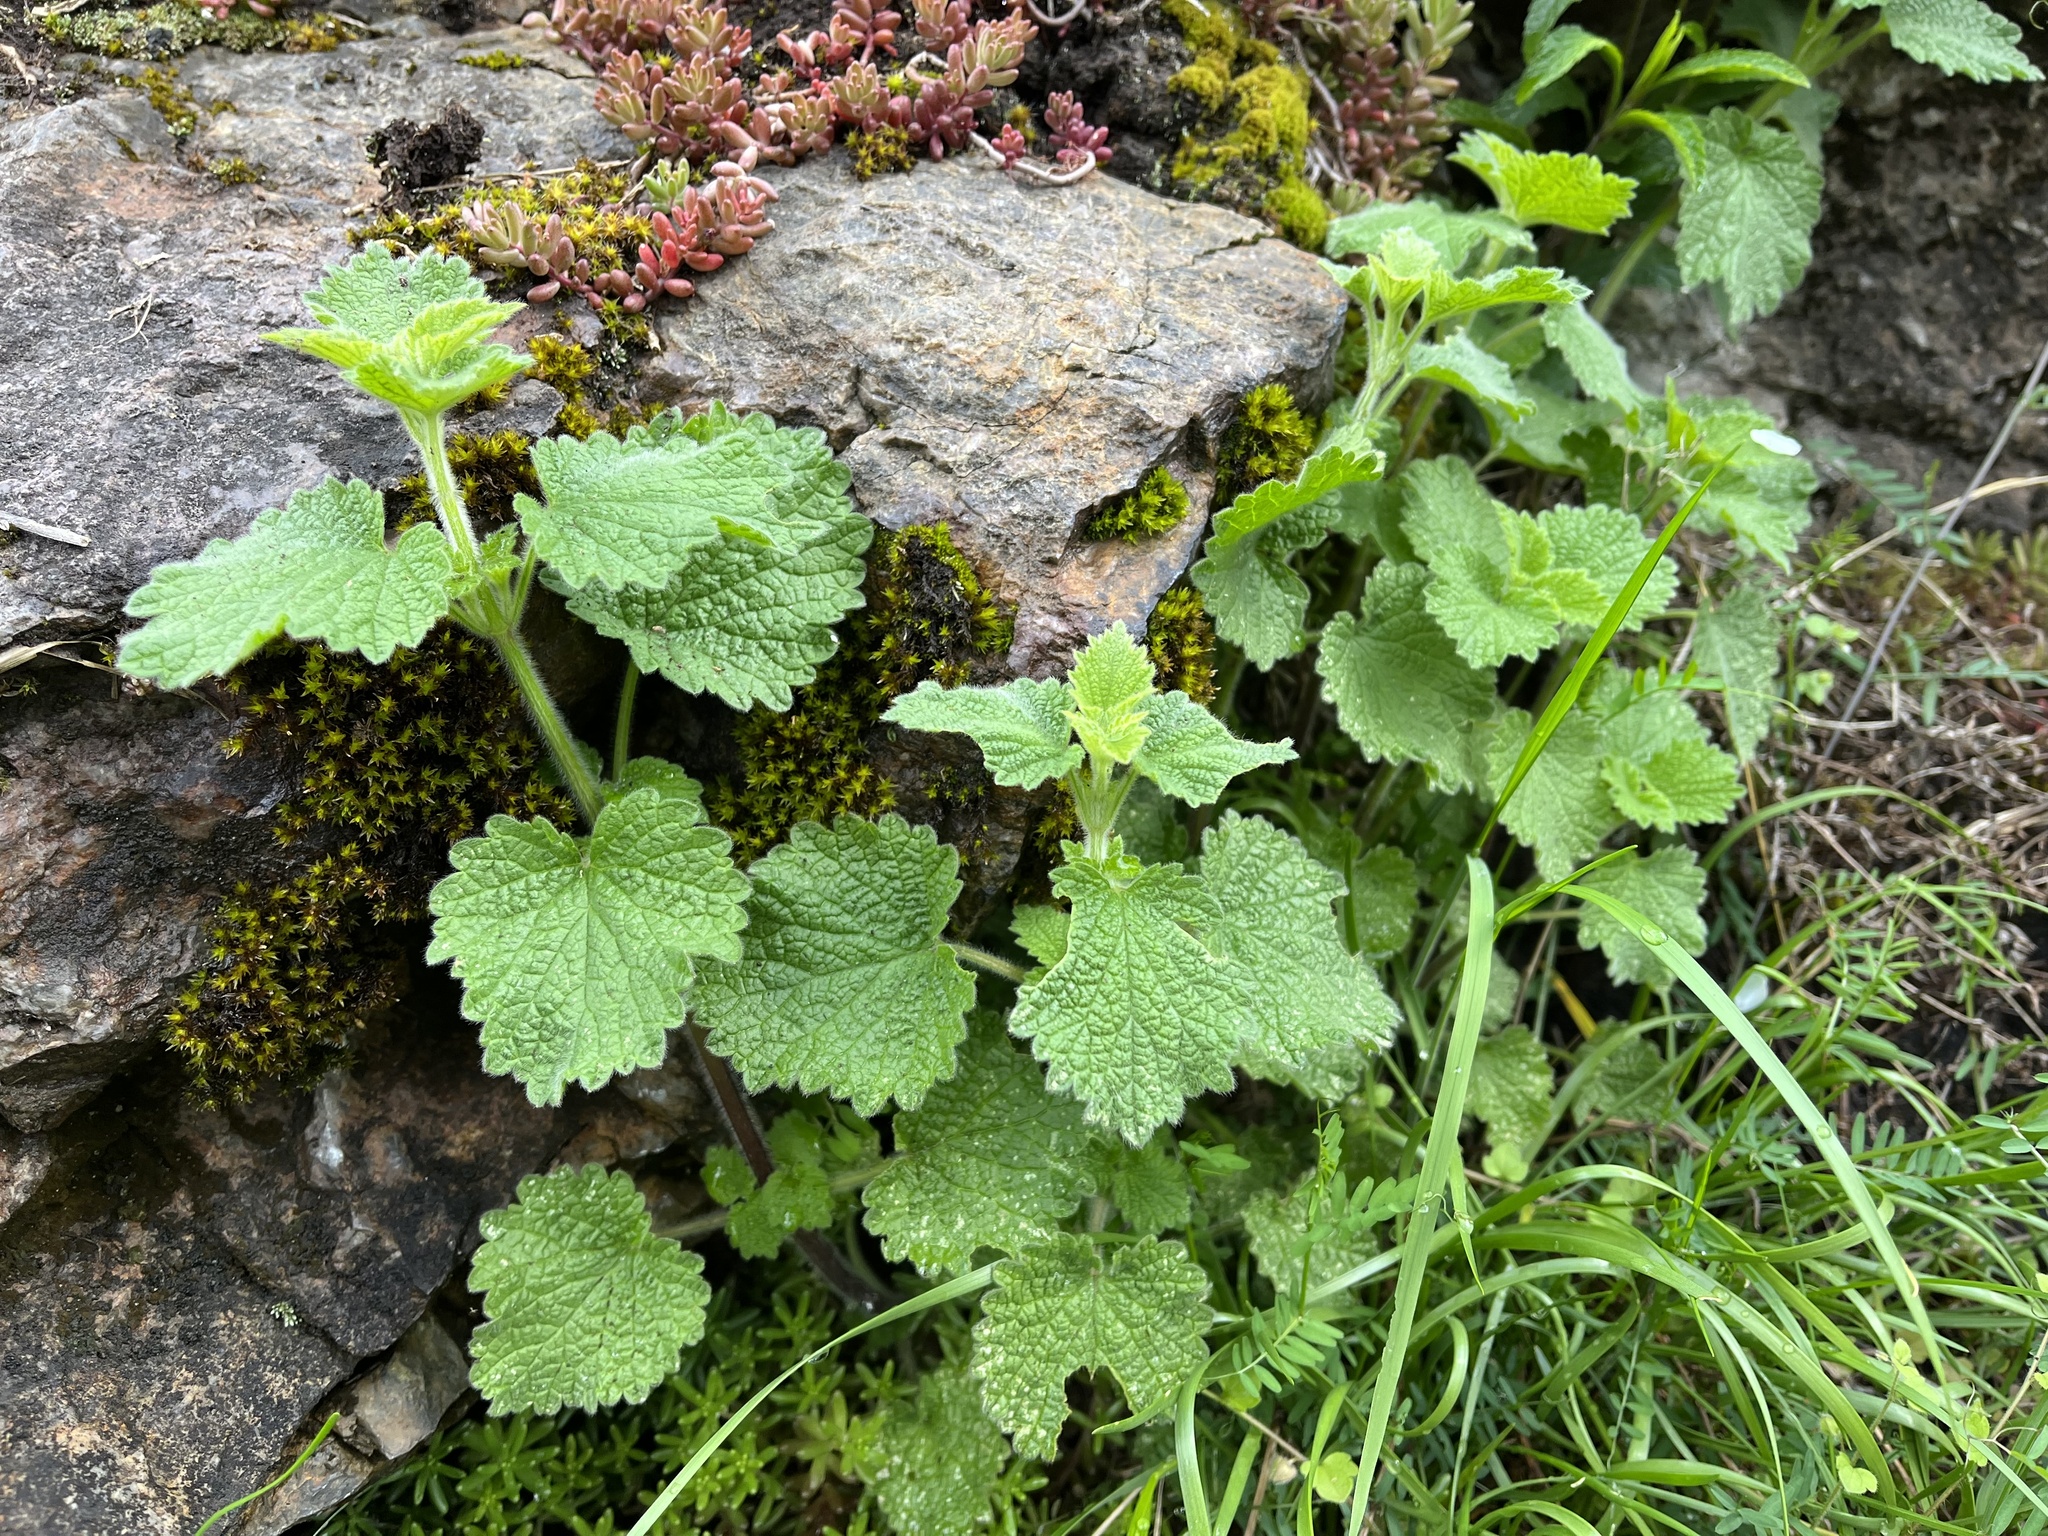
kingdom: Plantae
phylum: Tracheophyta
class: Magnoliopsida
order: Lamiales
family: Lamiaceae
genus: Ballota
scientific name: Ballota nigra
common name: Black horehound
